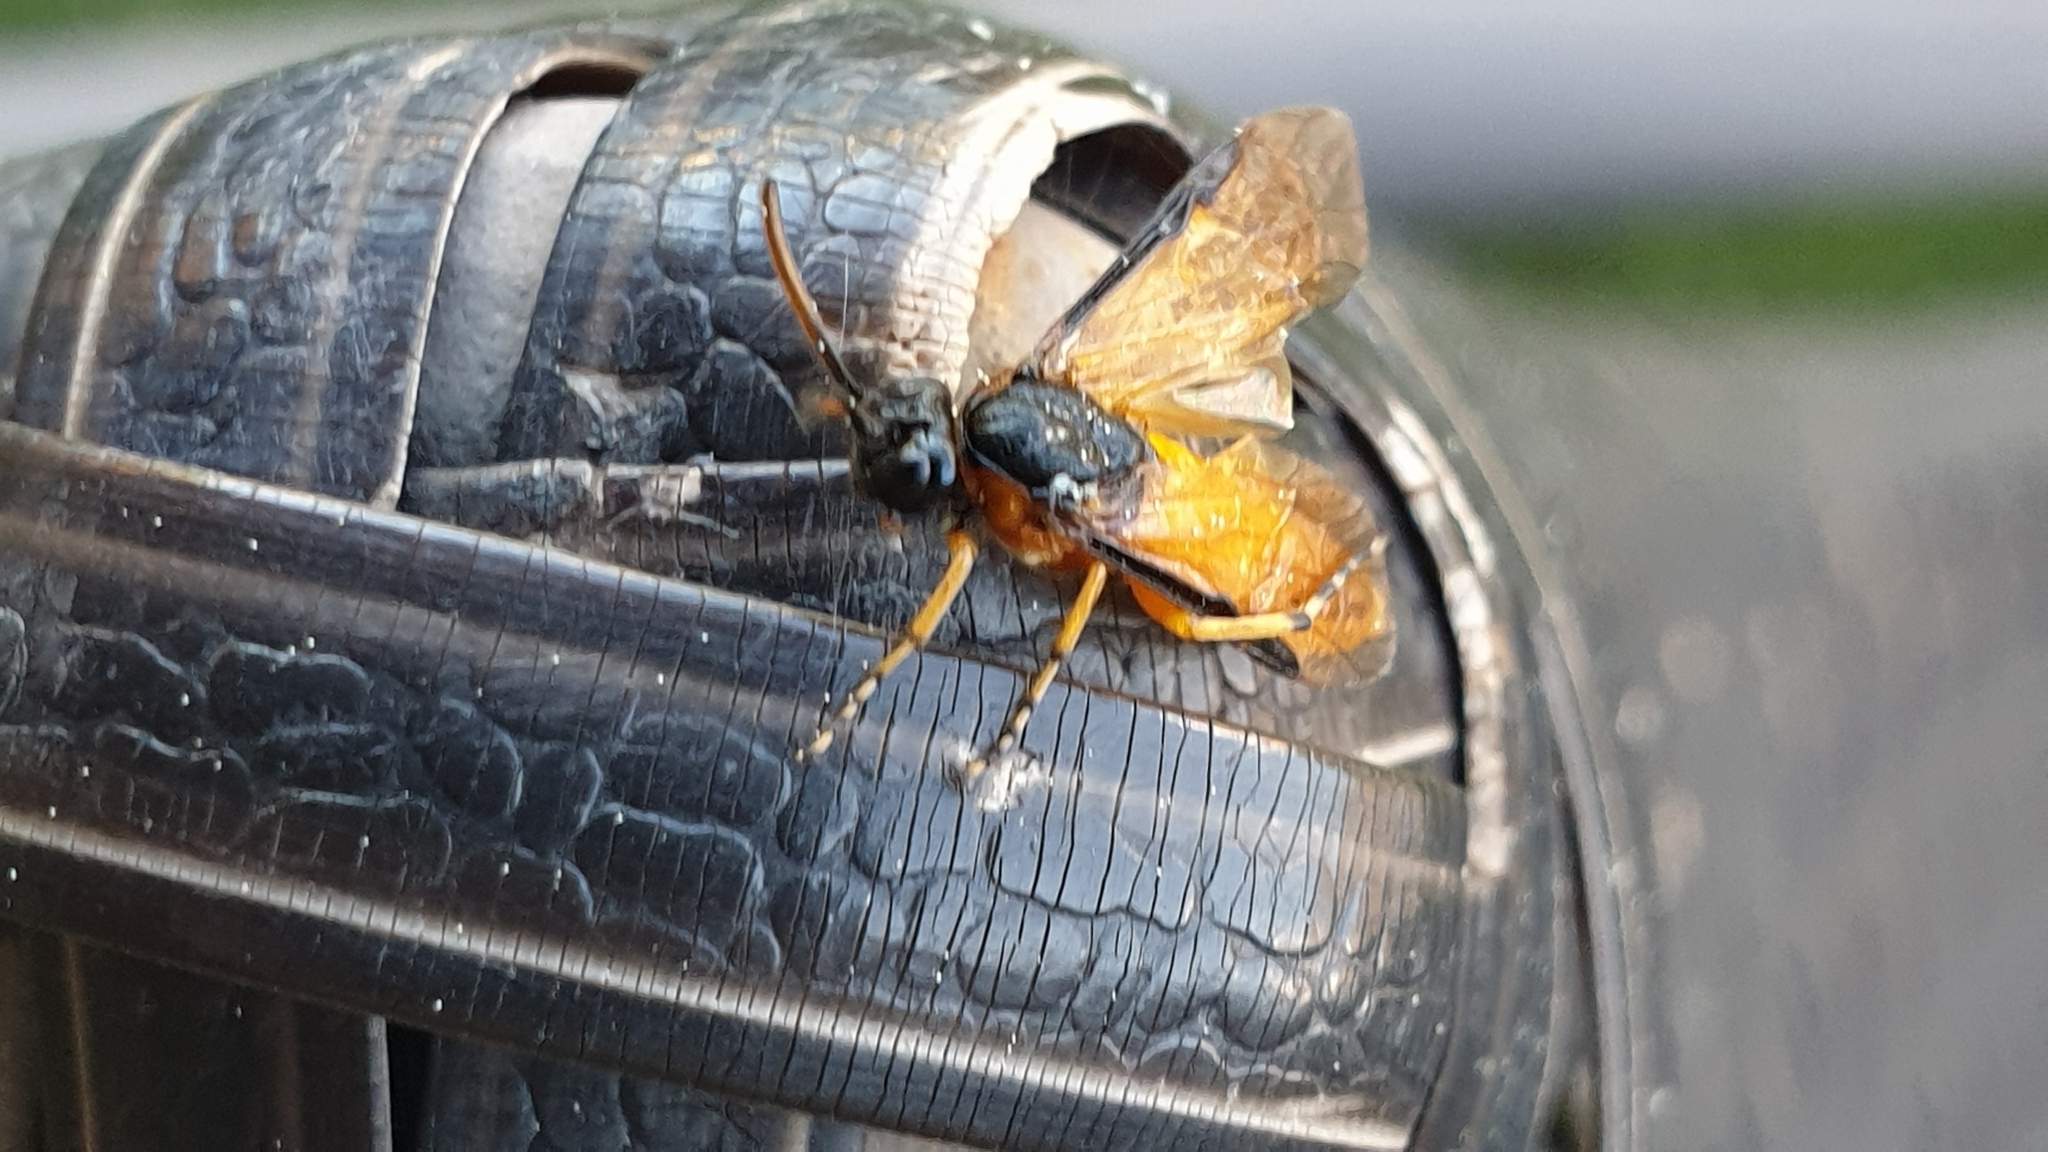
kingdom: Animalia
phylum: Arthropoda
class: Insecta
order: Hymenoptera
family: Argidae
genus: Arge
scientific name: Arge ochropus
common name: Argid sawfly
